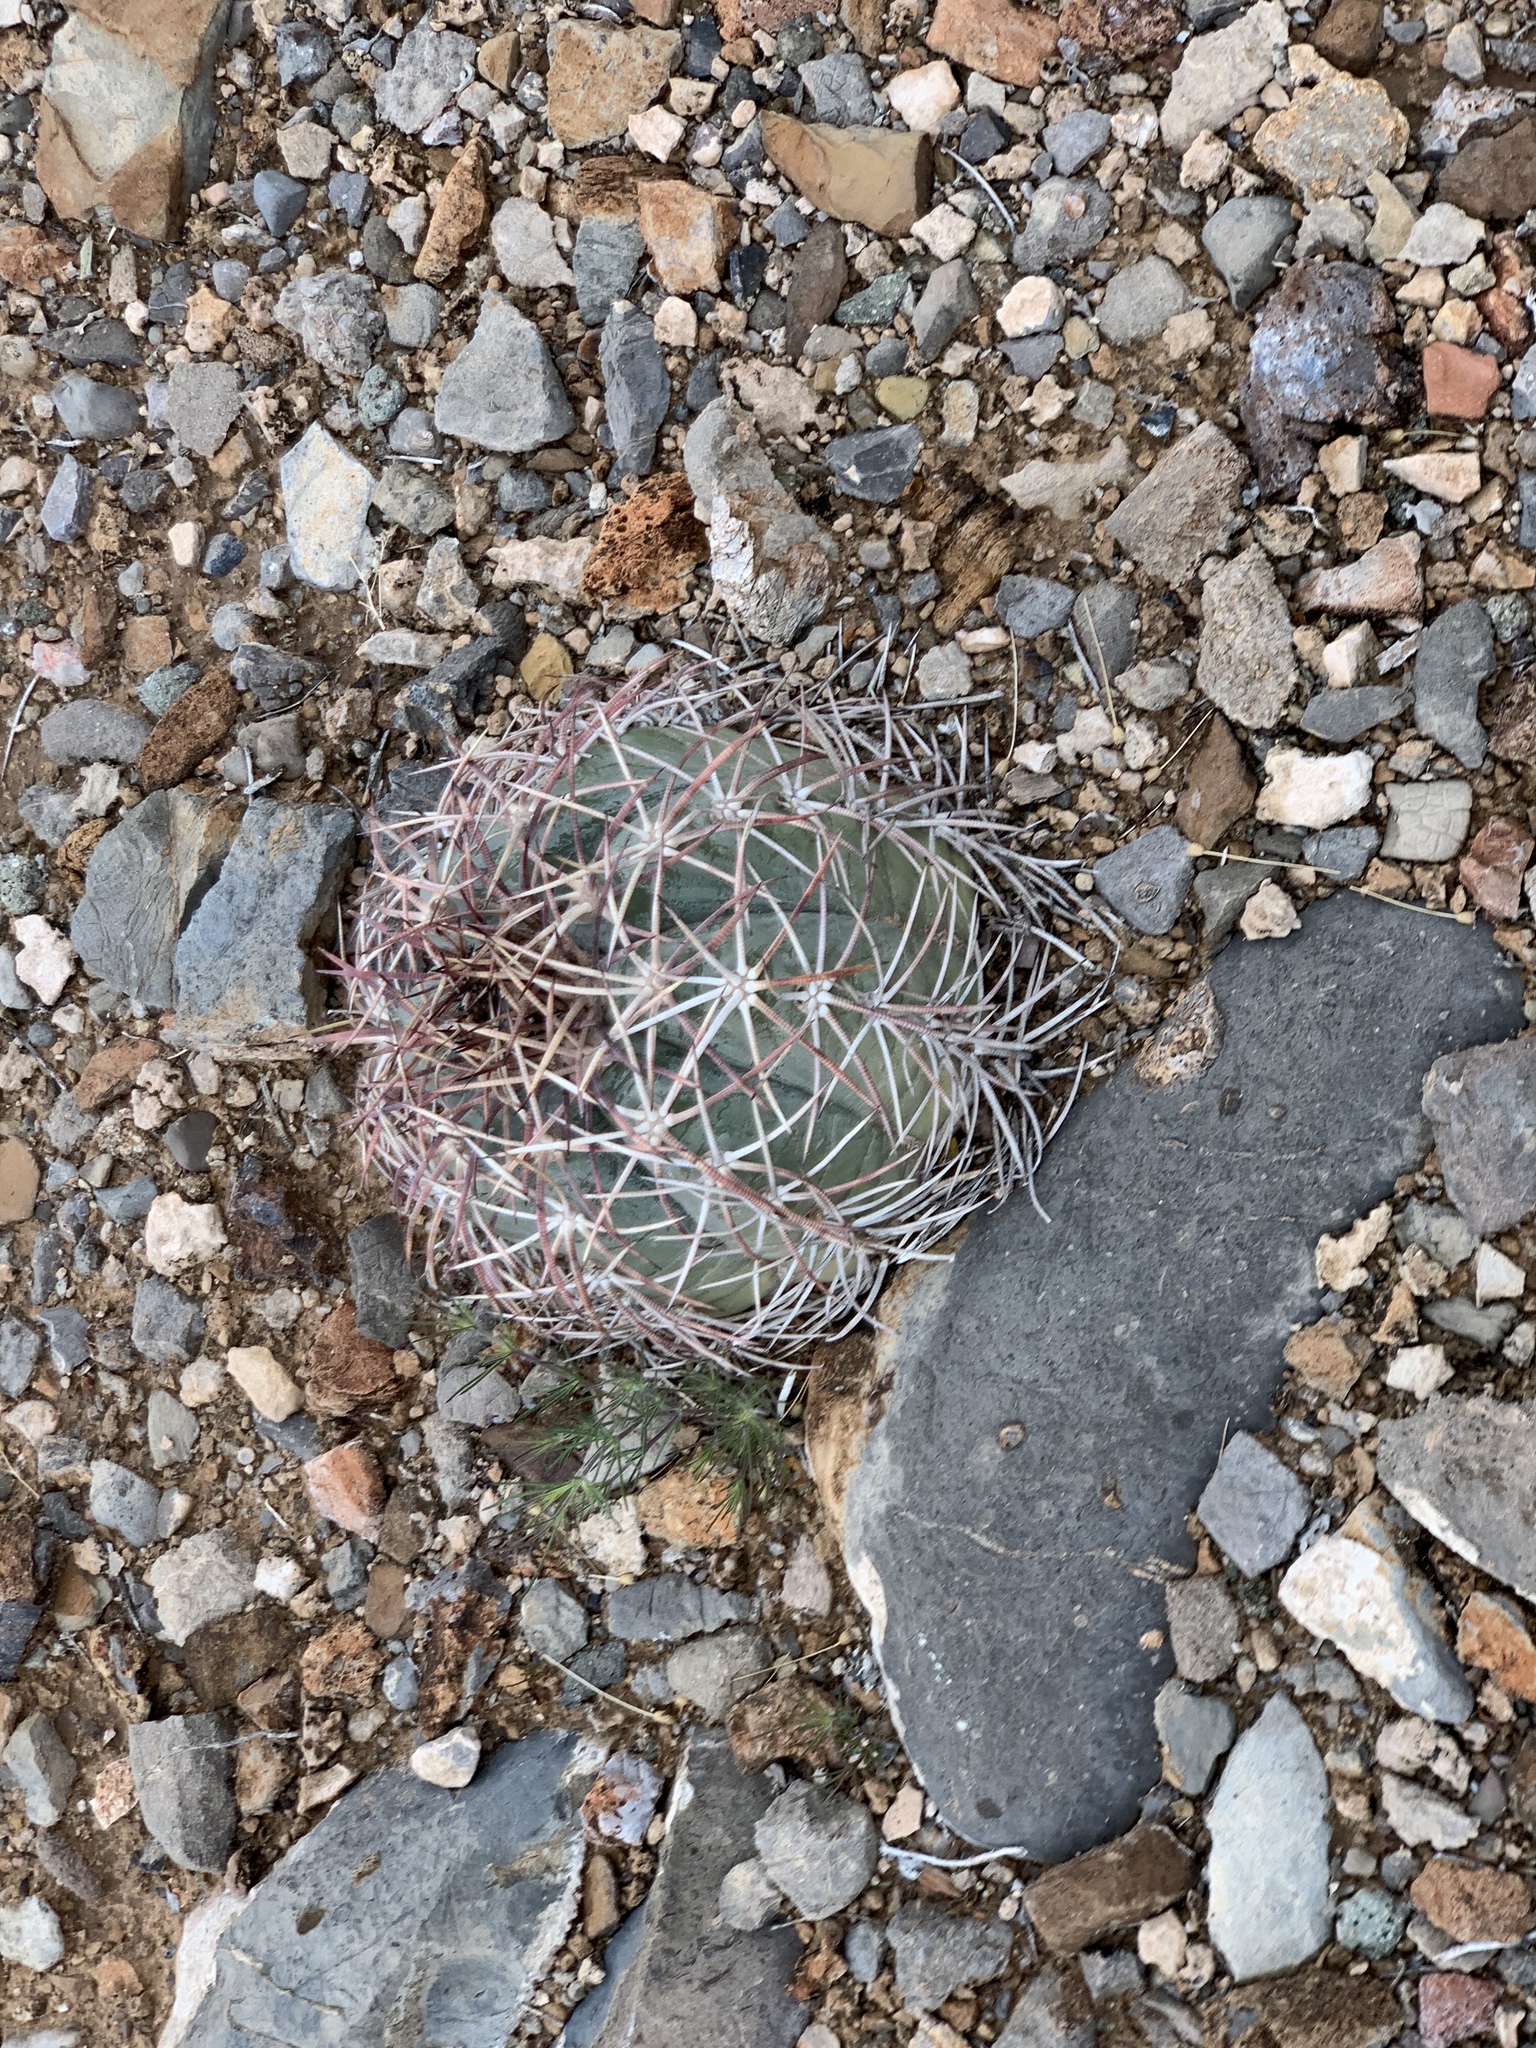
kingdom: Plantae
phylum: Tracheophyta
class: Magnoliopsida
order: Caryophyllales
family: Cactaceae
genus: Echinocactus
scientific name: Echinocactus horizonthalonius
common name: Devilshead
